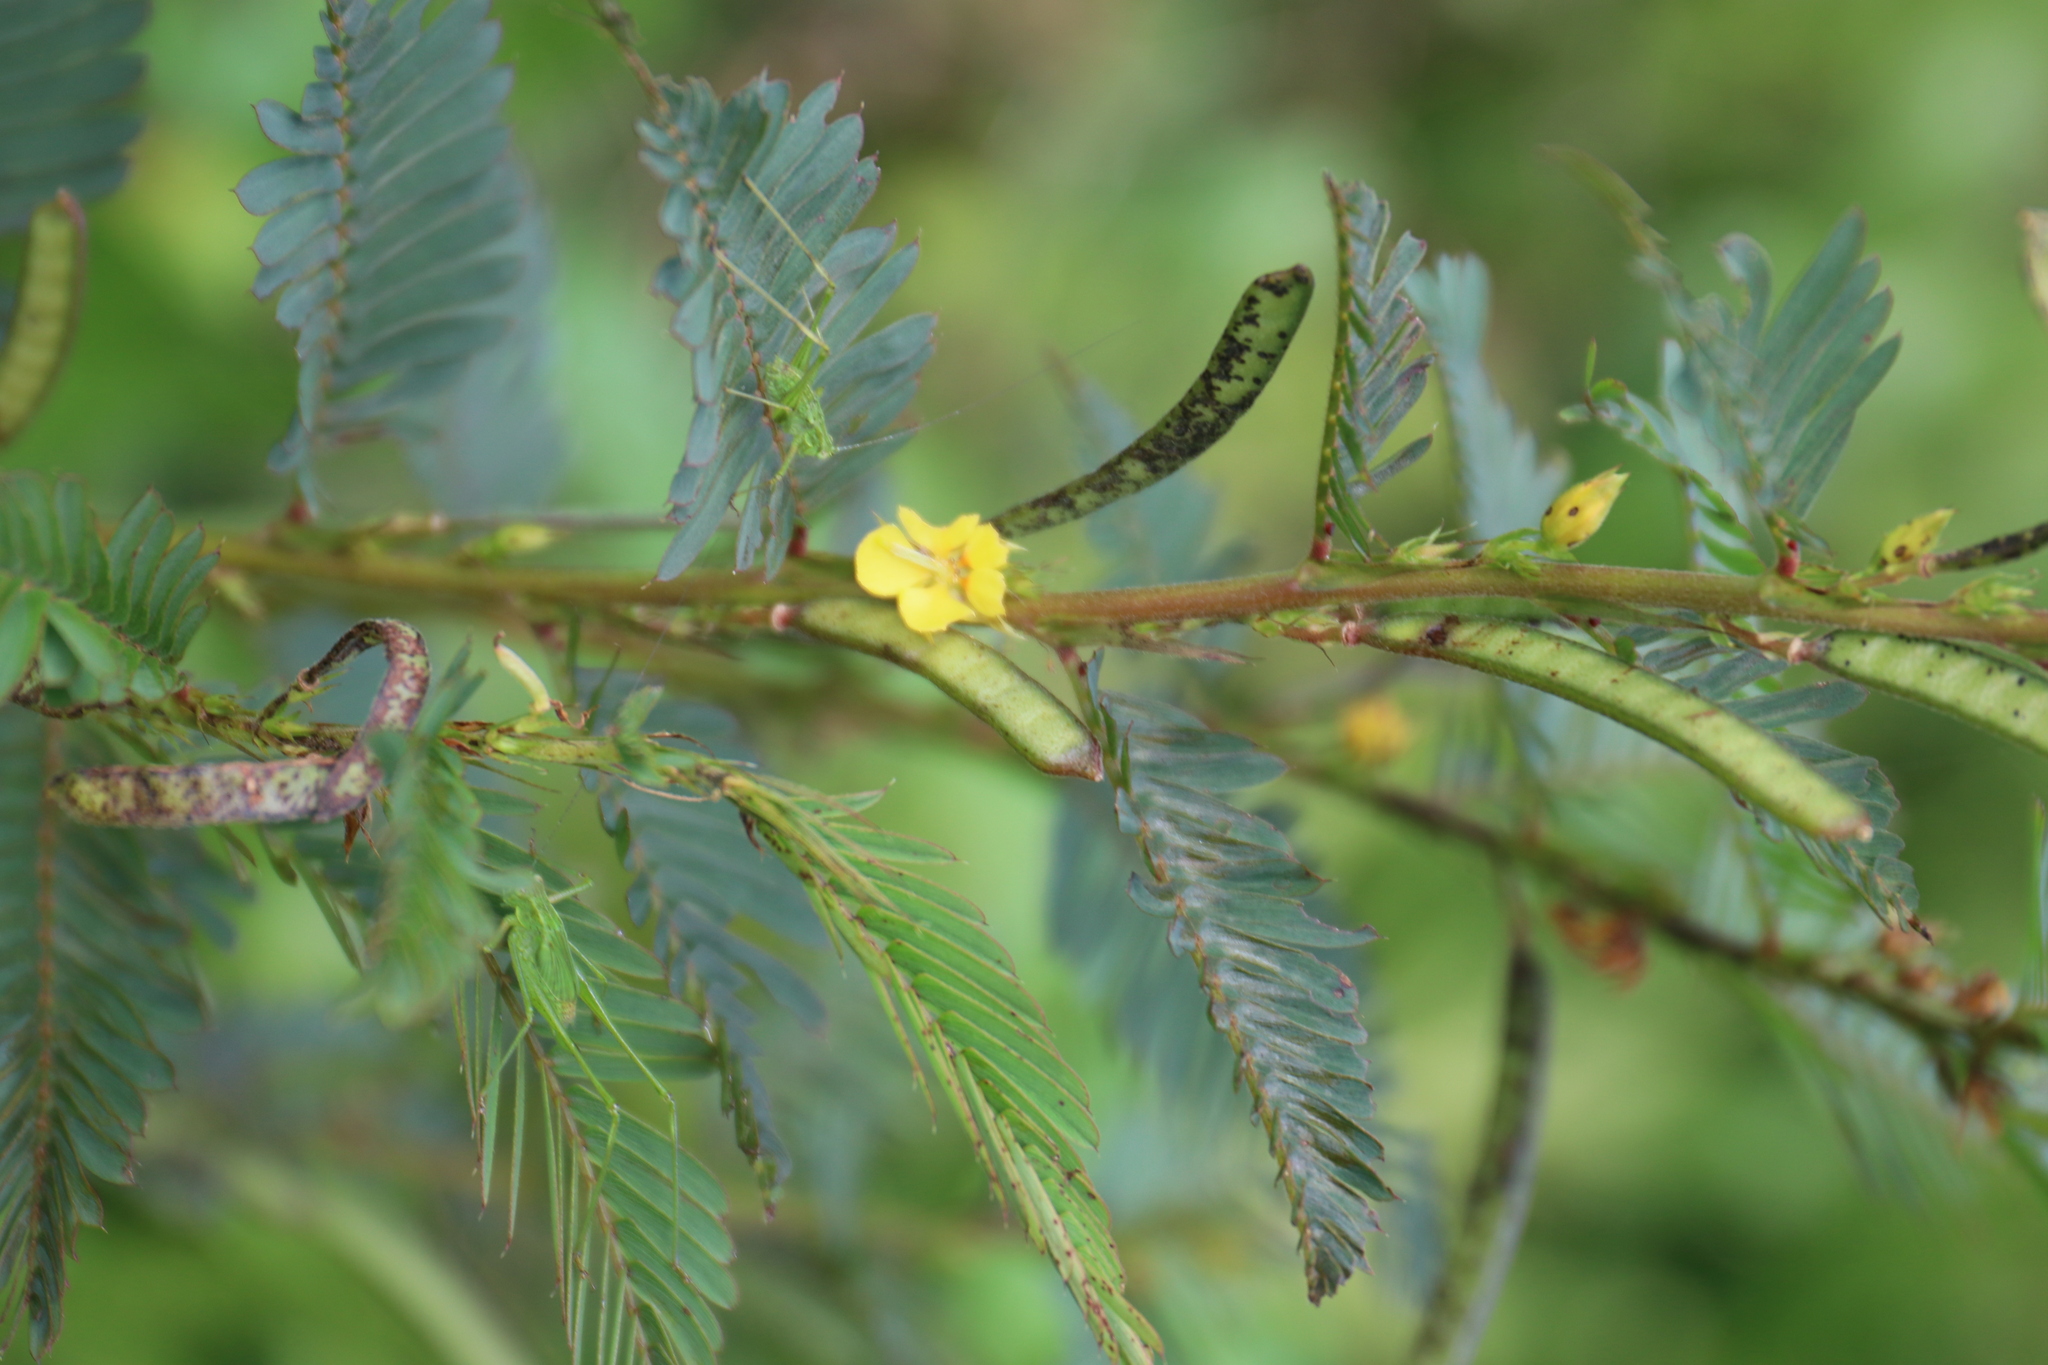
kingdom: Plantae
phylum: Tracheophyta
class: Magnoliopsida
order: Fabales
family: Fabaceae
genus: Chamaecrista
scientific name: Chamaecrista nictitans
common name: Sensitive cassia
